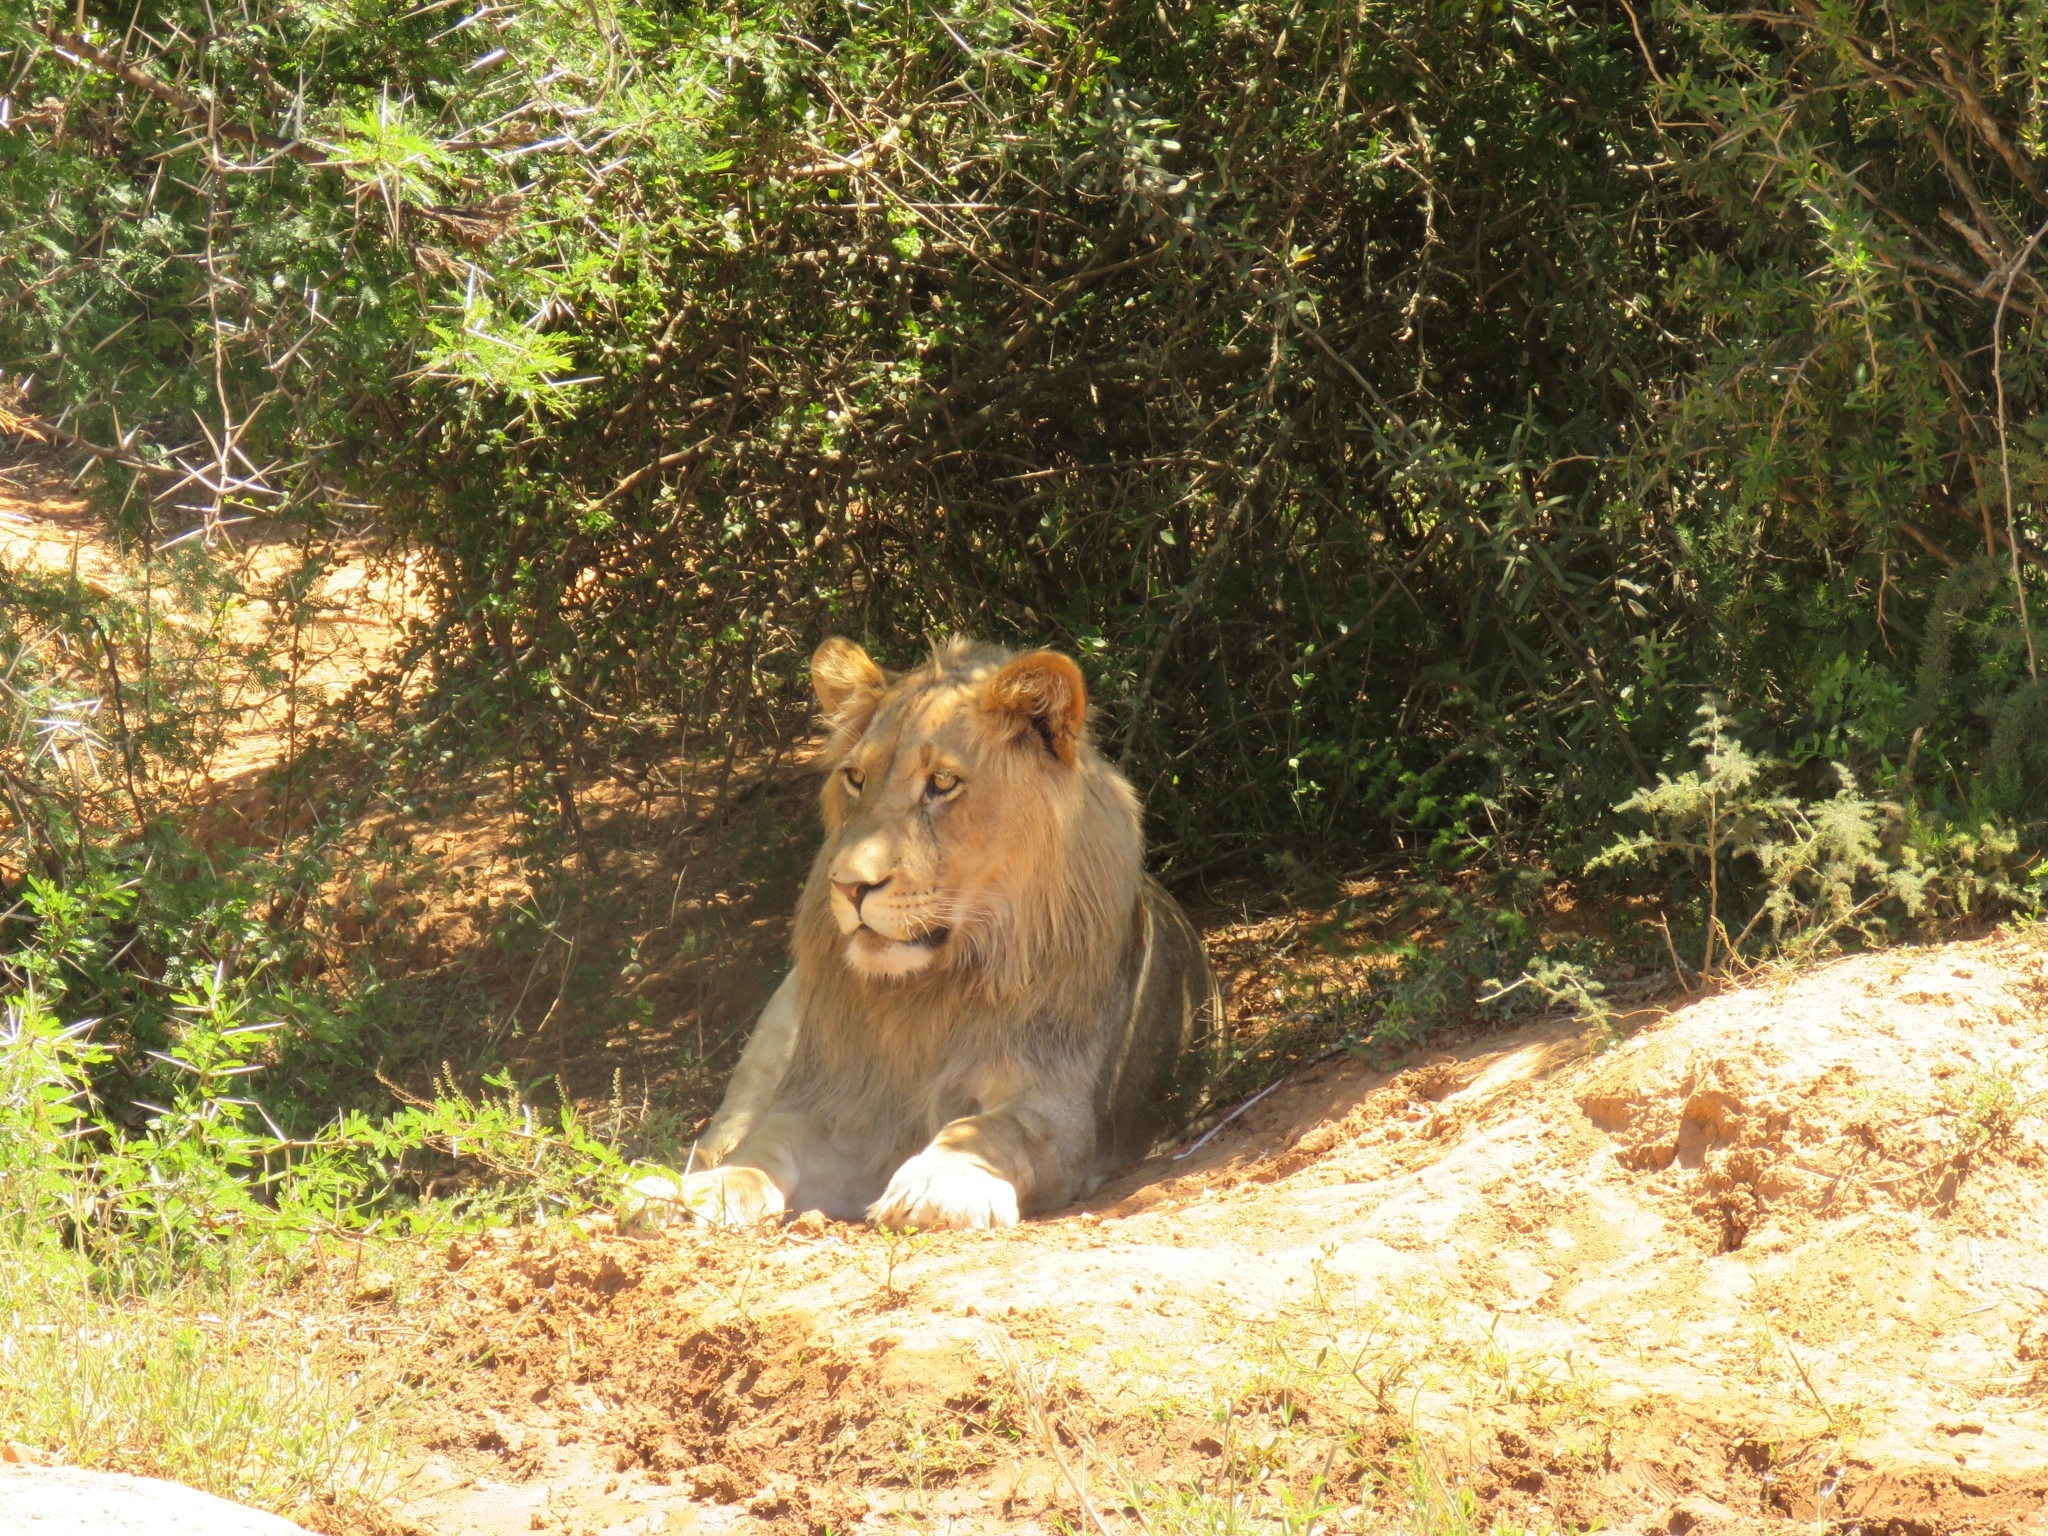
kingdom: Animalia
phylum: Chordata
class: Mammalia
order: Carnivora
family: Felidae
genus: Panthera
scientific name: Panthera leo
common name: Lion
